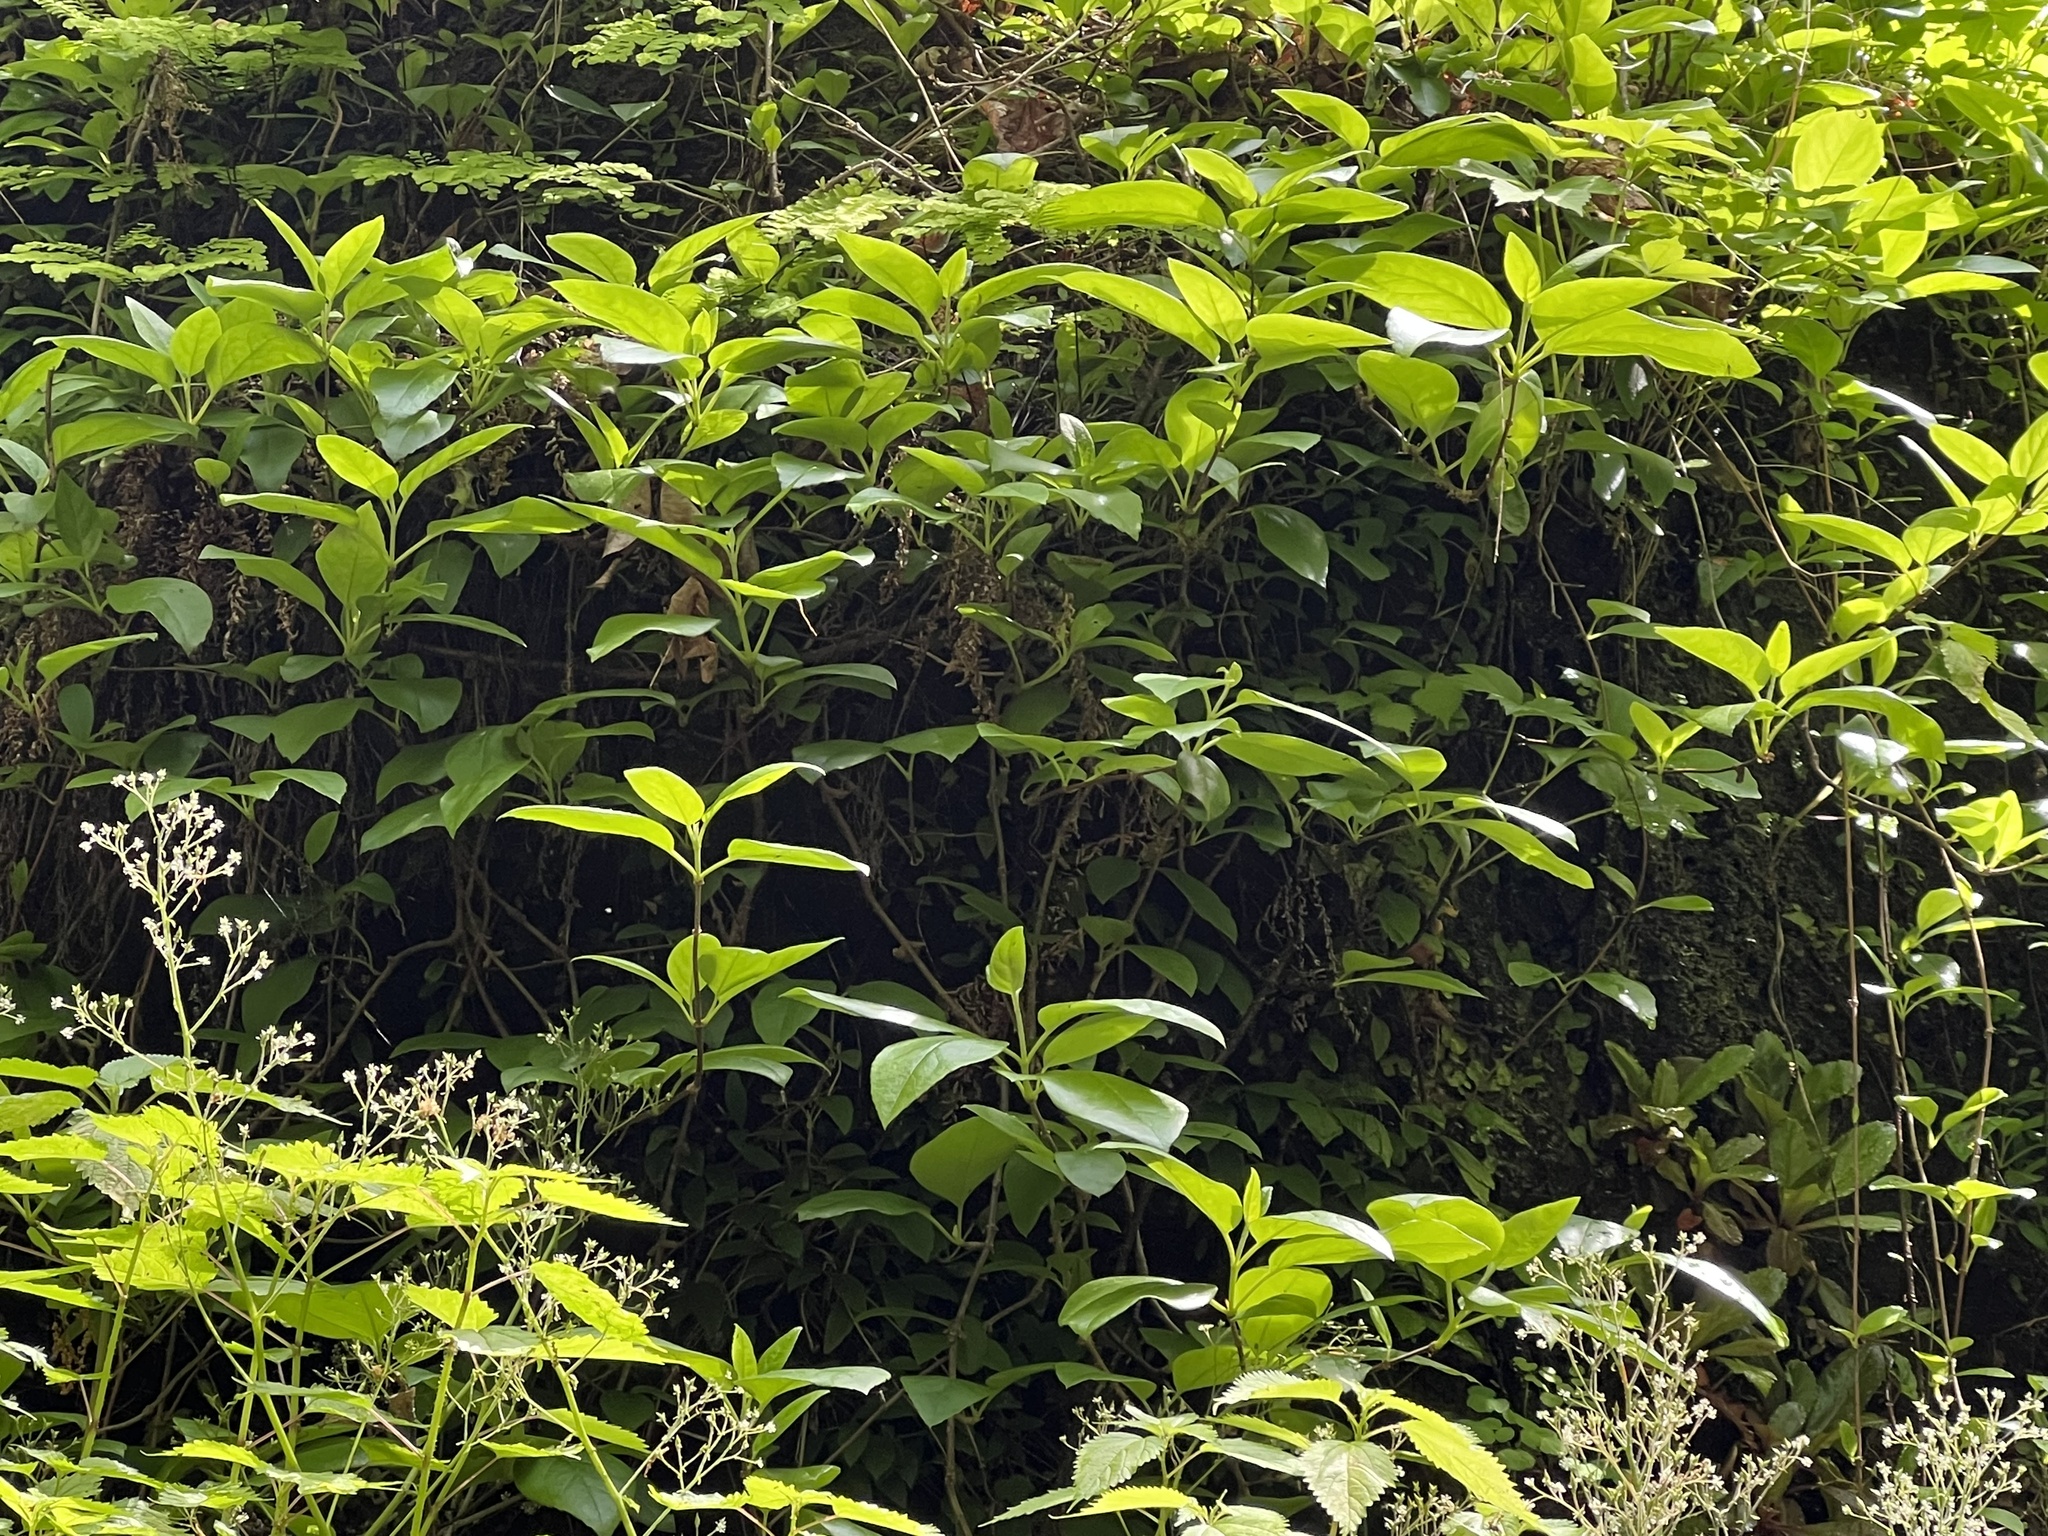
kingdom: Plantae
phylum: Tracheophyta
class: Magnoliopsida
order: Cornales
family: Hydrangeaceae
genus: Hydrangea
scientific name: Hydrangea barbara
